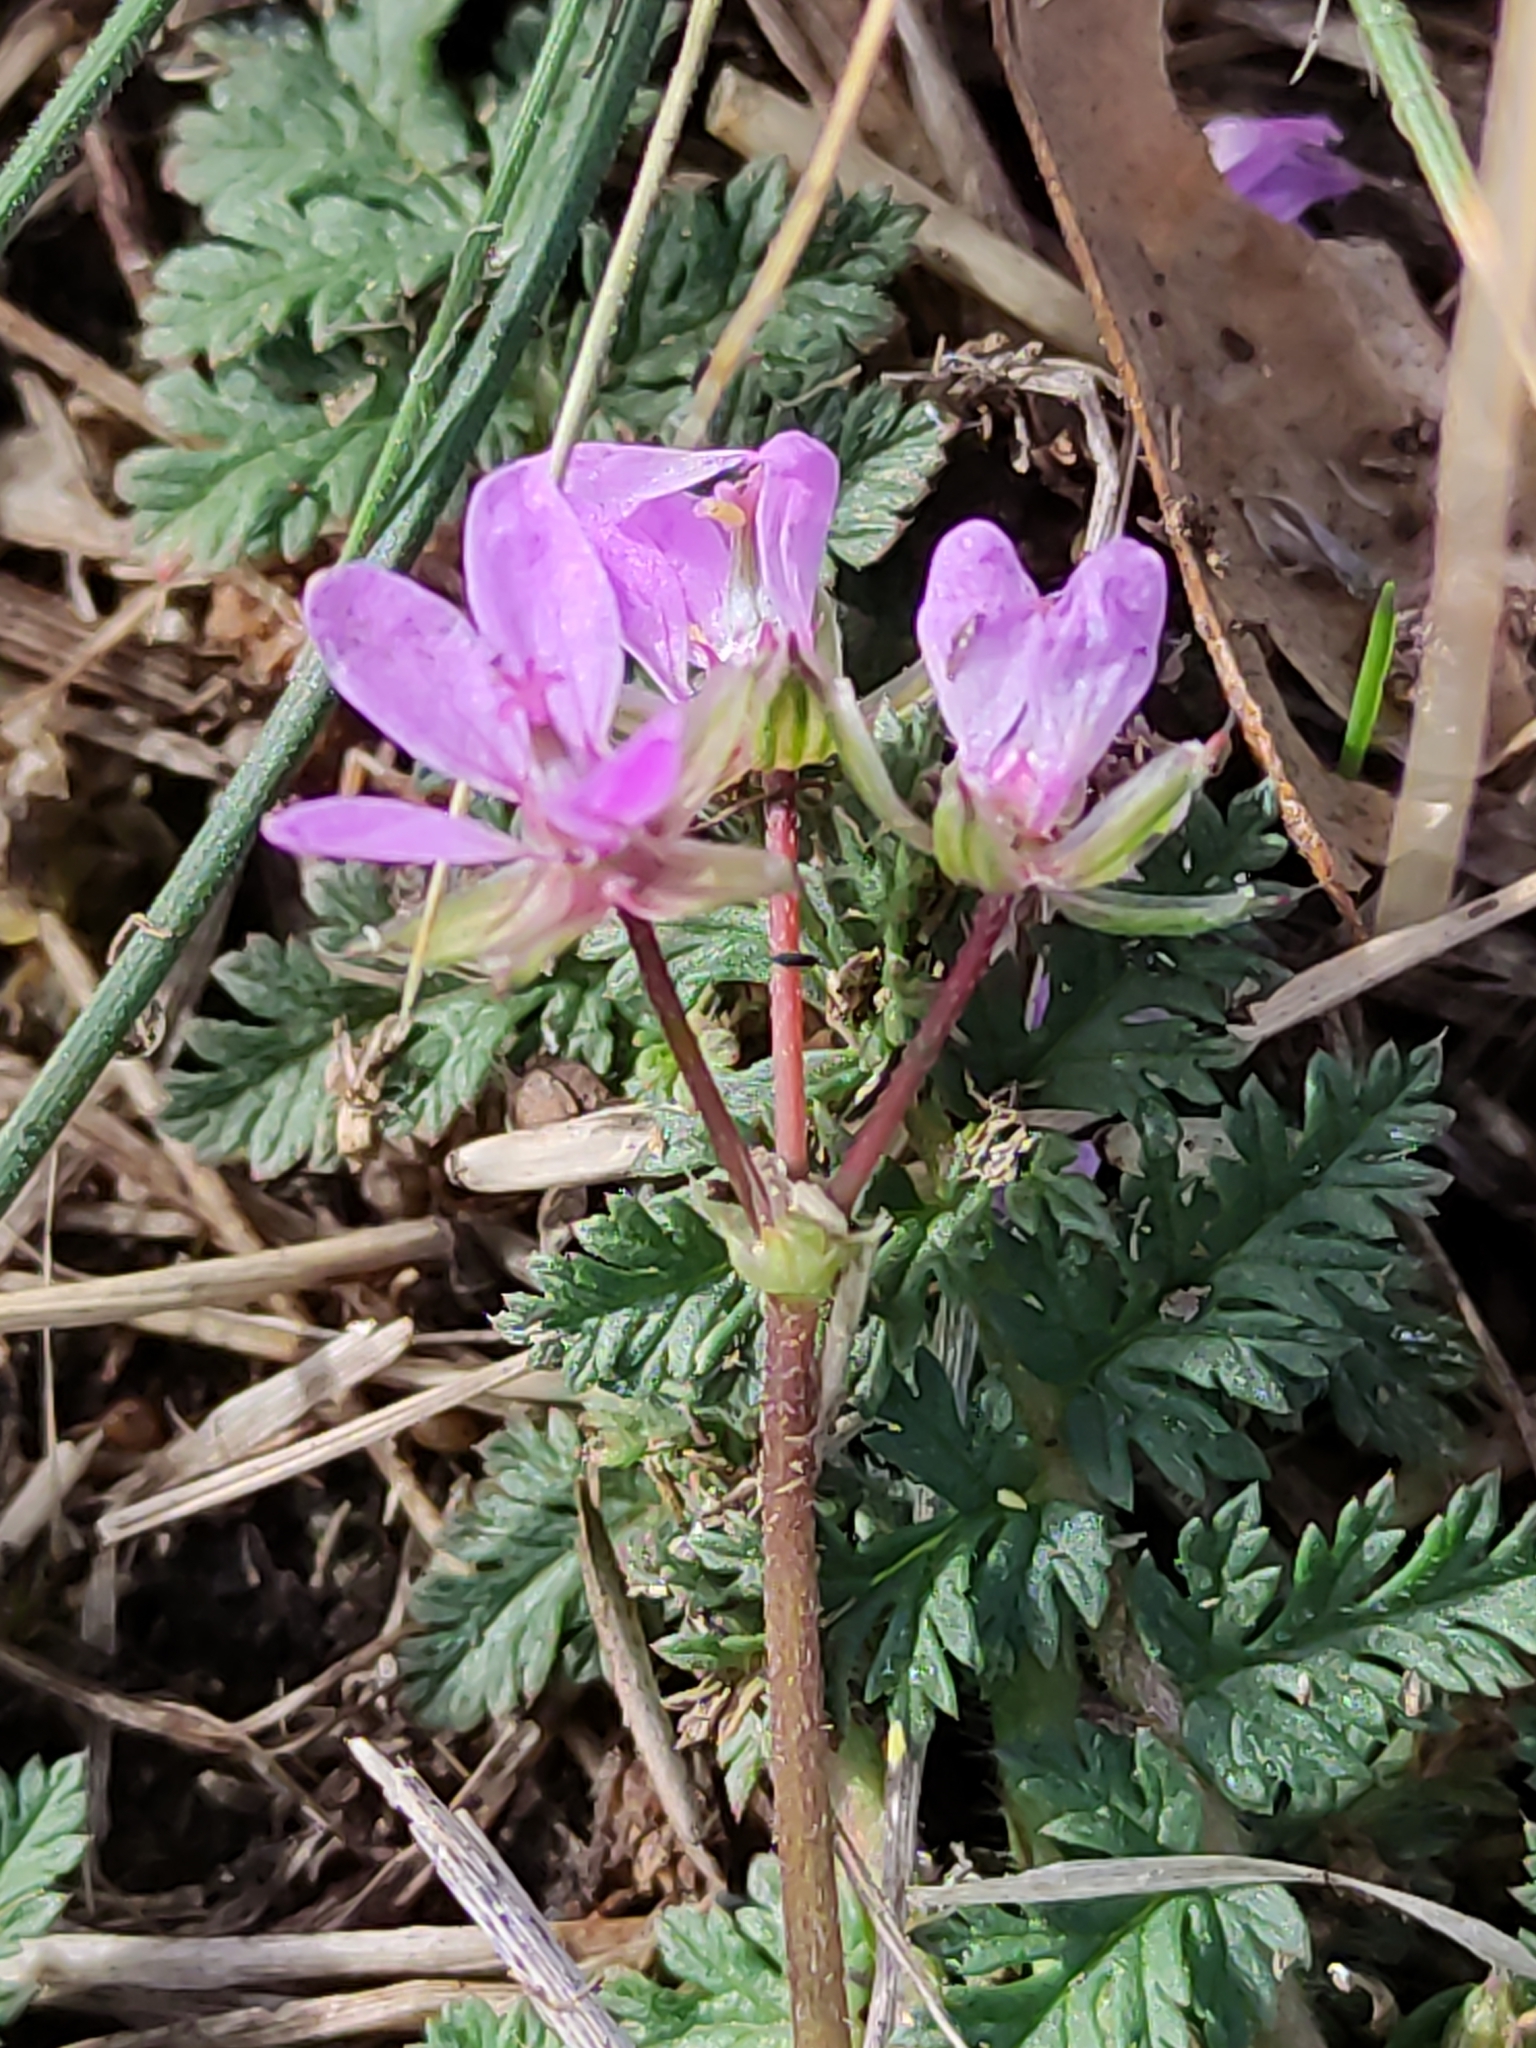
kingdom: Plantae
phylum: Tracheophyta
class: Magnoliopsida
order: Geraniales
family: Geraniaceae
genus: Erodium
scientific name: Erodium moschatum
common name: Musk stork's-bill
